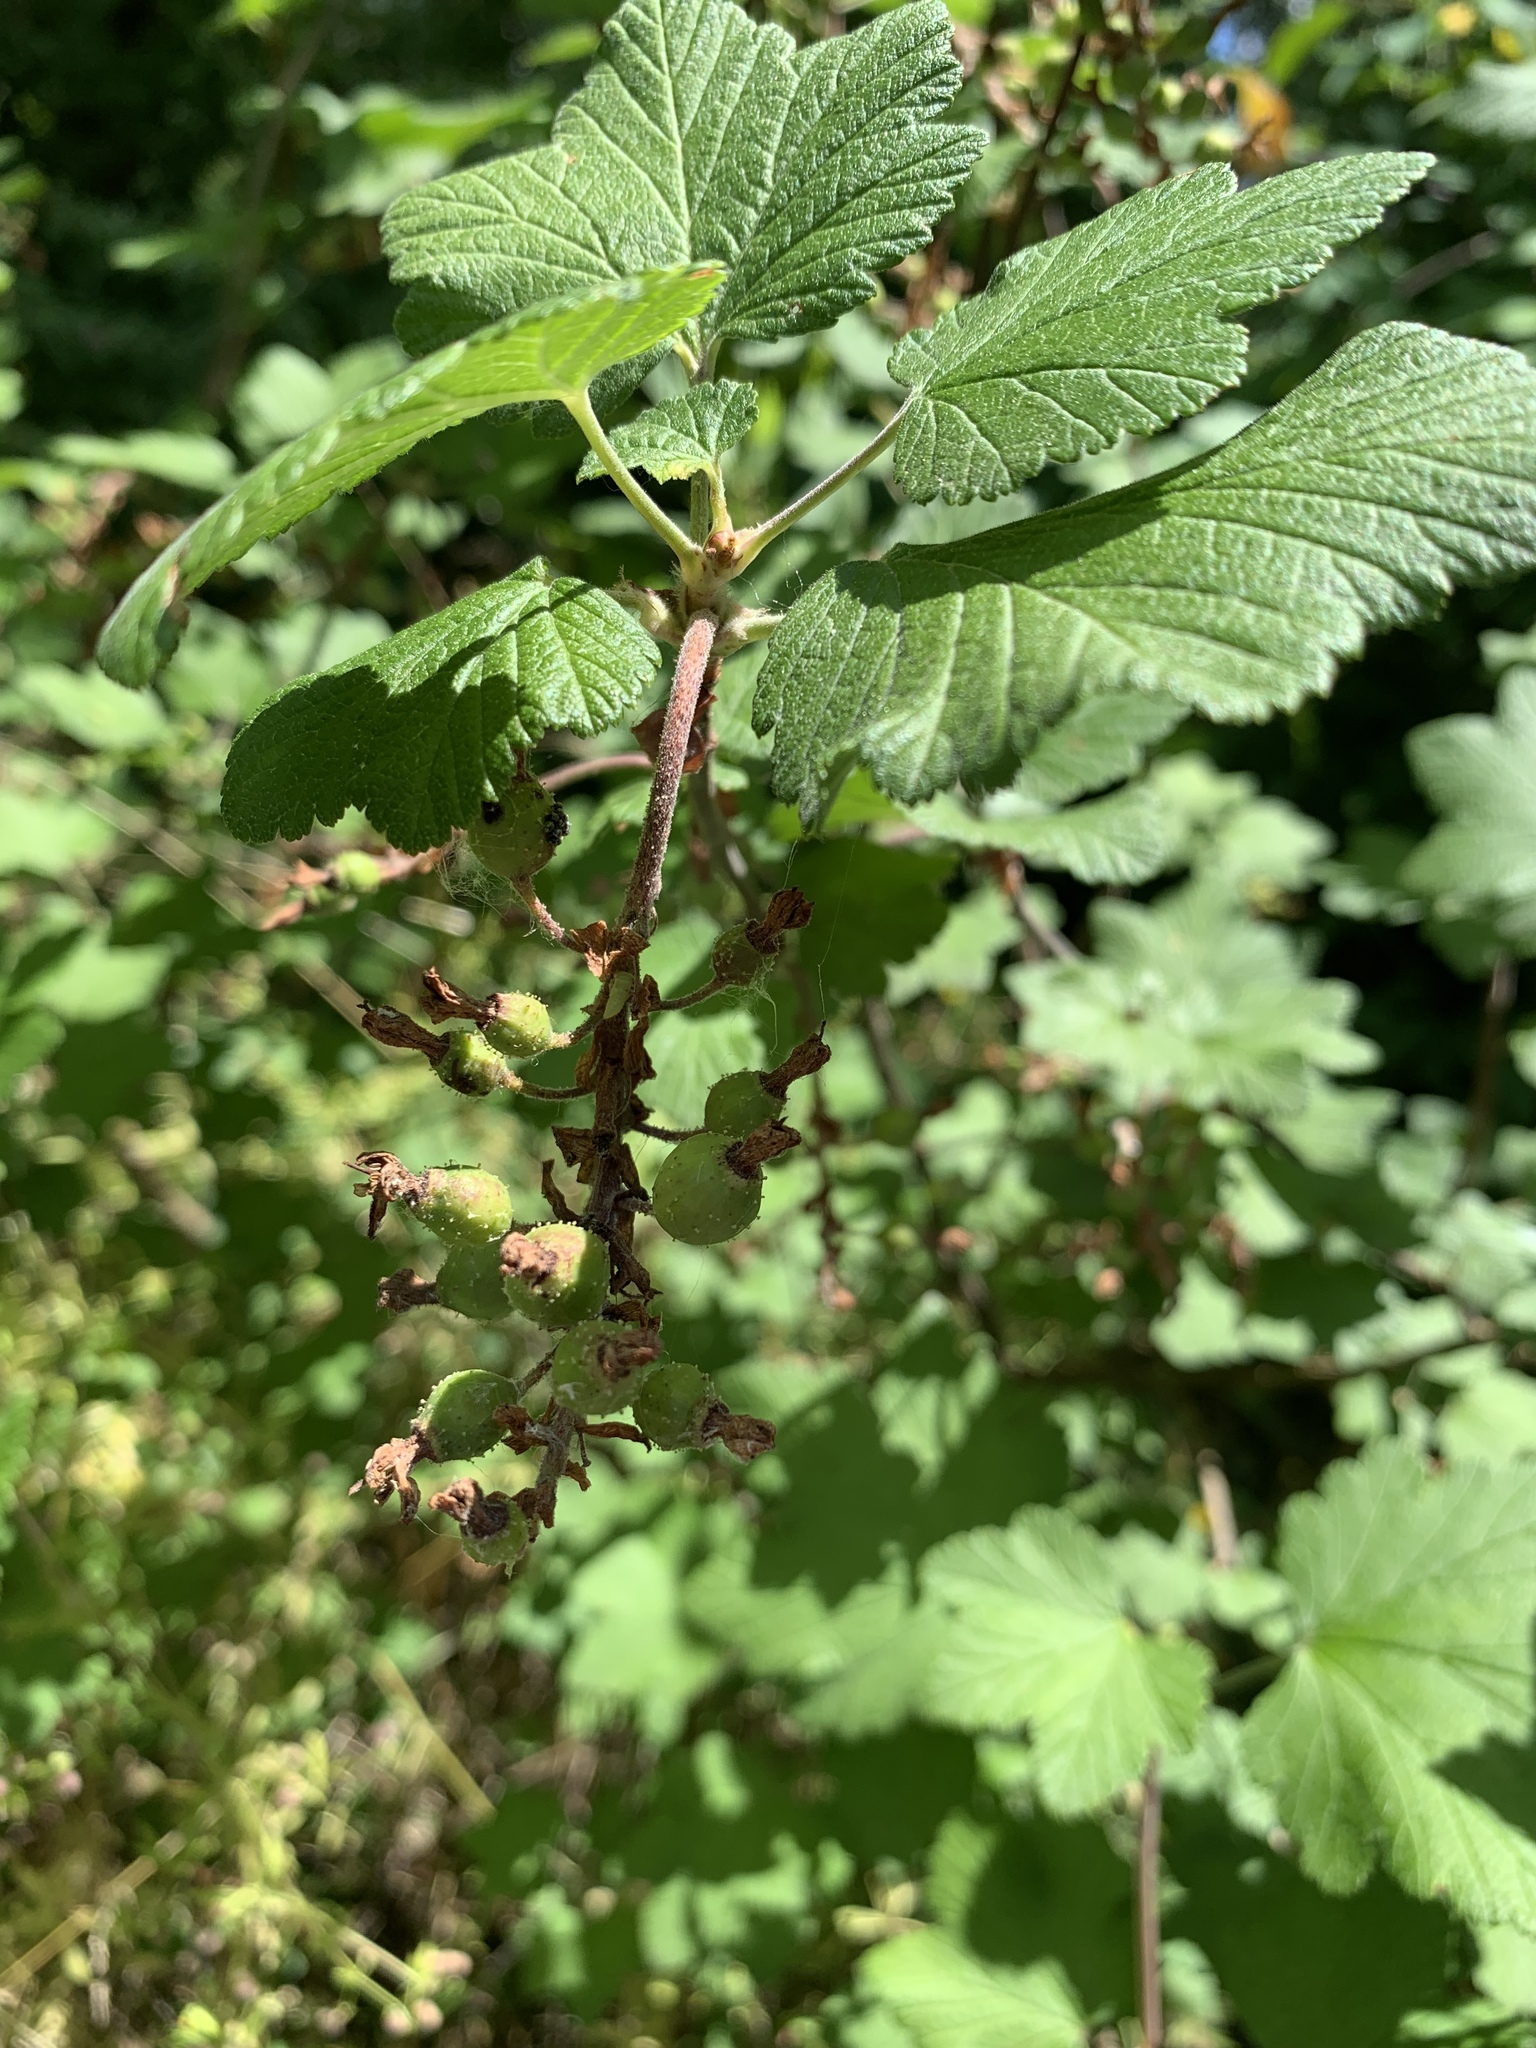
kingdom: Plantae
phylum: Tracheophyta
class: Magnoliopsida
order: Saxifragales
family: Grossulariaceae
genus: Ribes
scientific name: Ribes sanguineum
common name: Flowering currant
